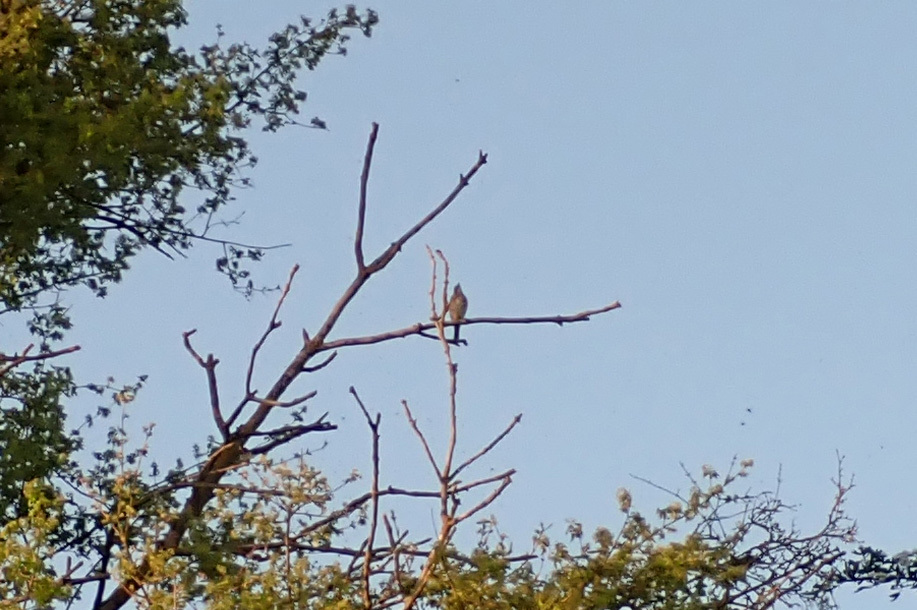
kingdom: Animalia
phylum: Chordata
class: Aves
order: Passeriformes
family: Turdidae
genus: Turdus
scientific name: Turdus philomelos
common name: Song thrush
